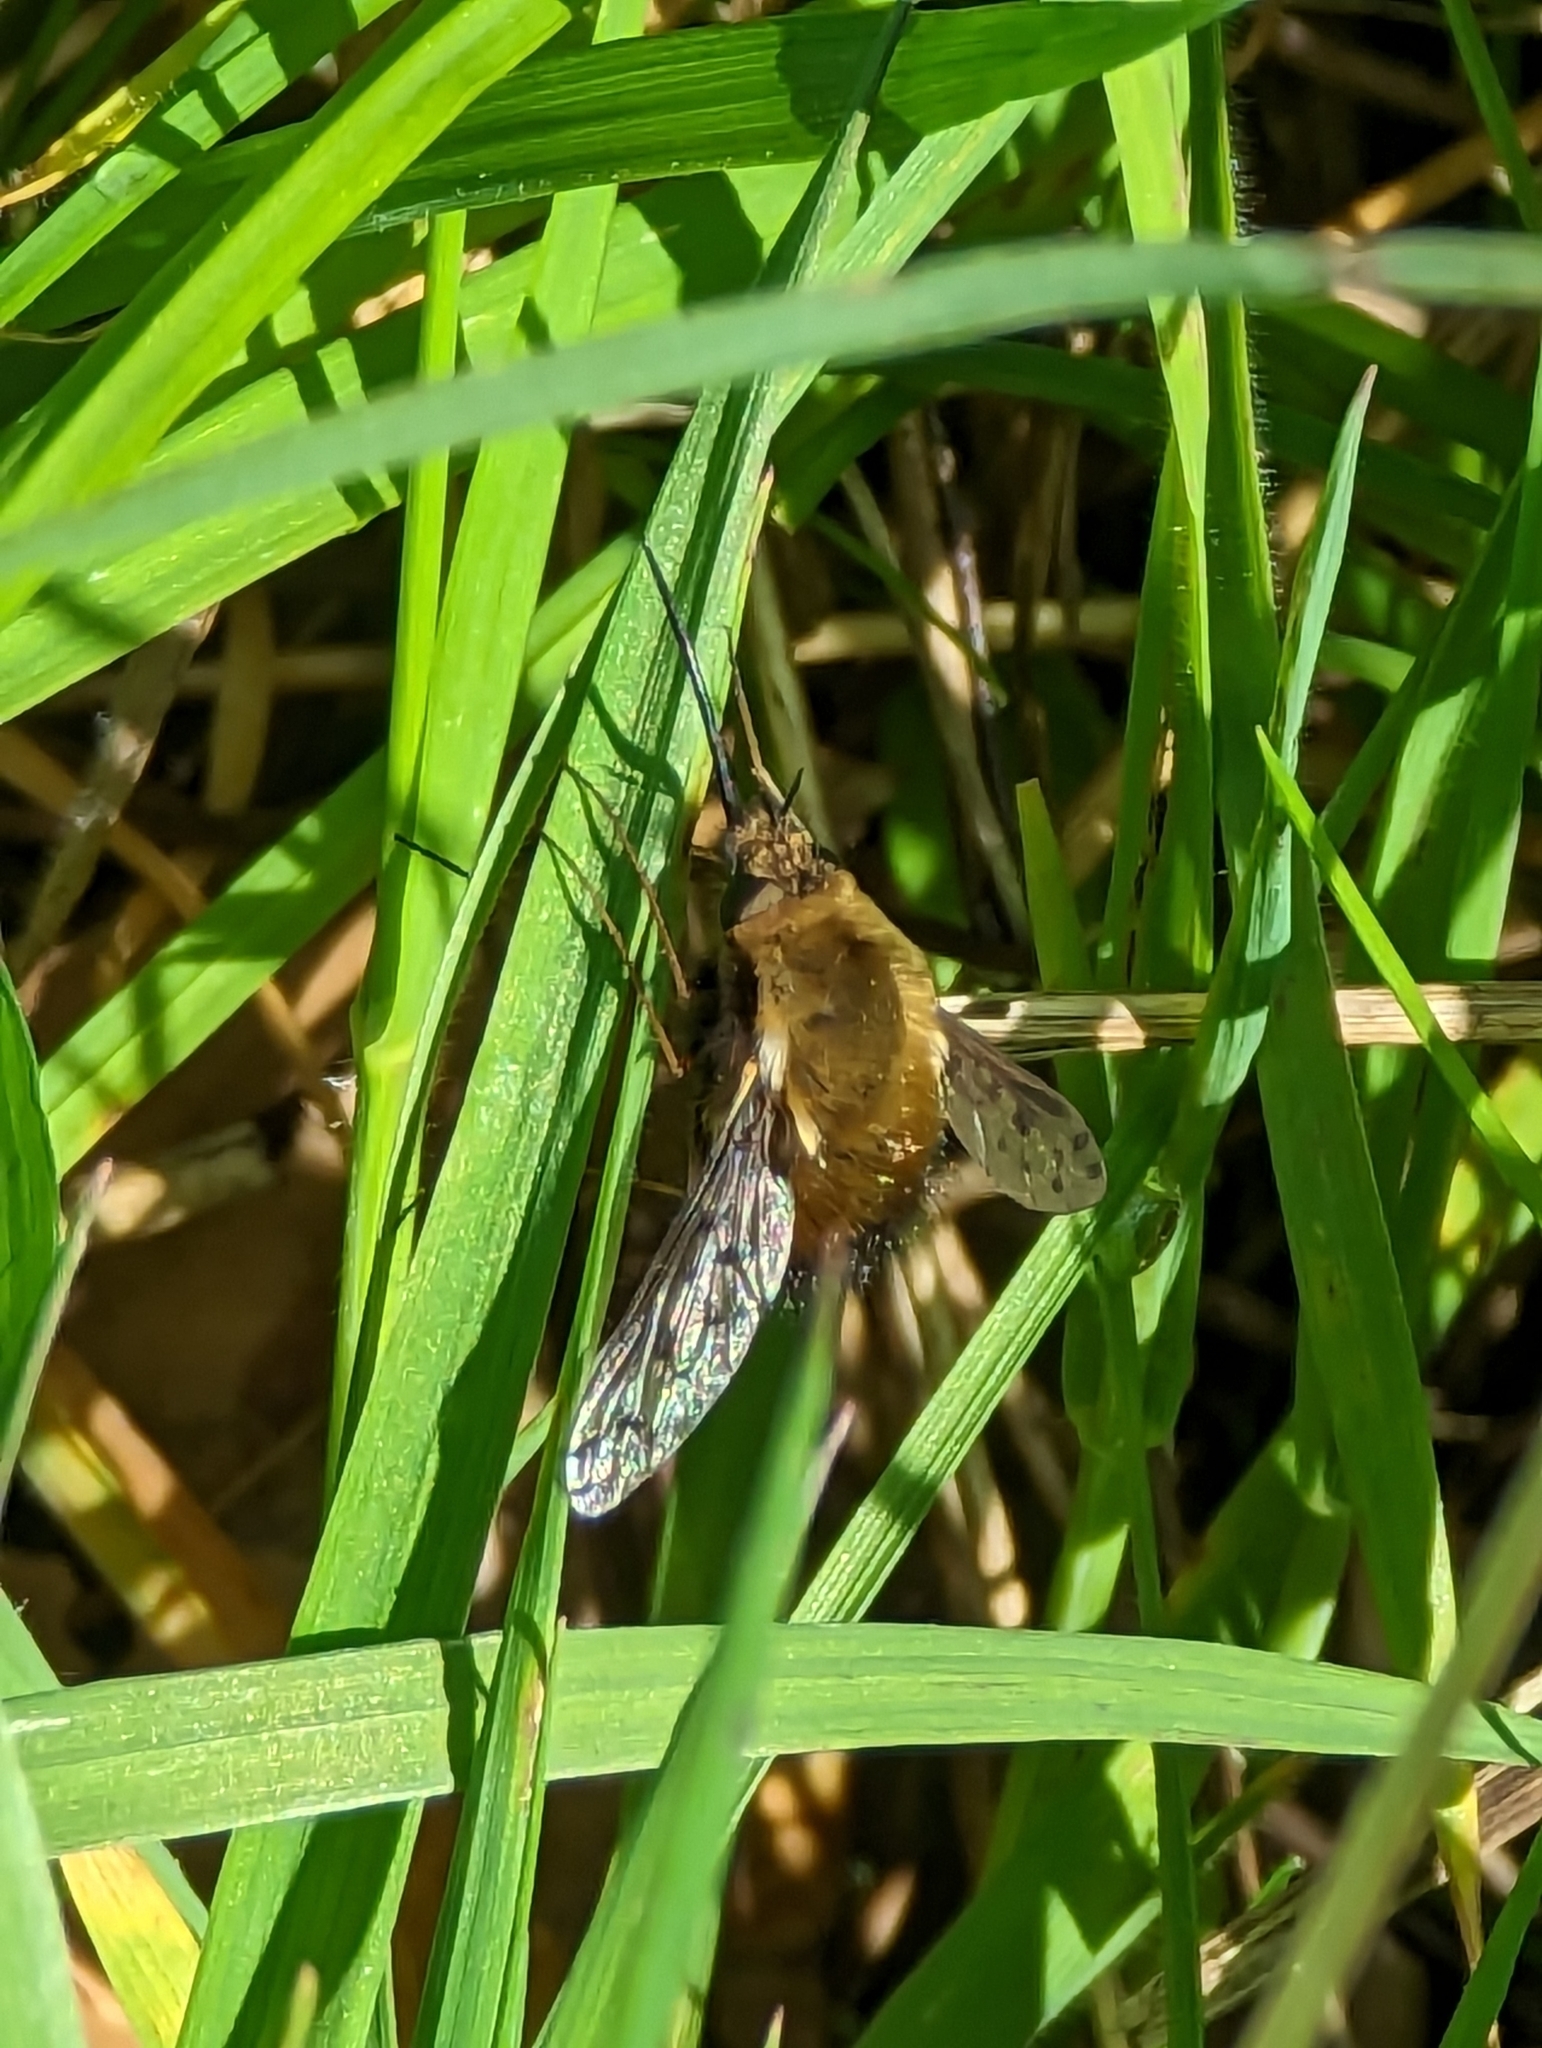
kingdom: Animalia
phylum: Arthropoda
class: Insecta
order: Diptera
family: Bombyliidae
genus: Bombylius
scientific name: Bombylius discolor
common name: Dotted bee-fly
